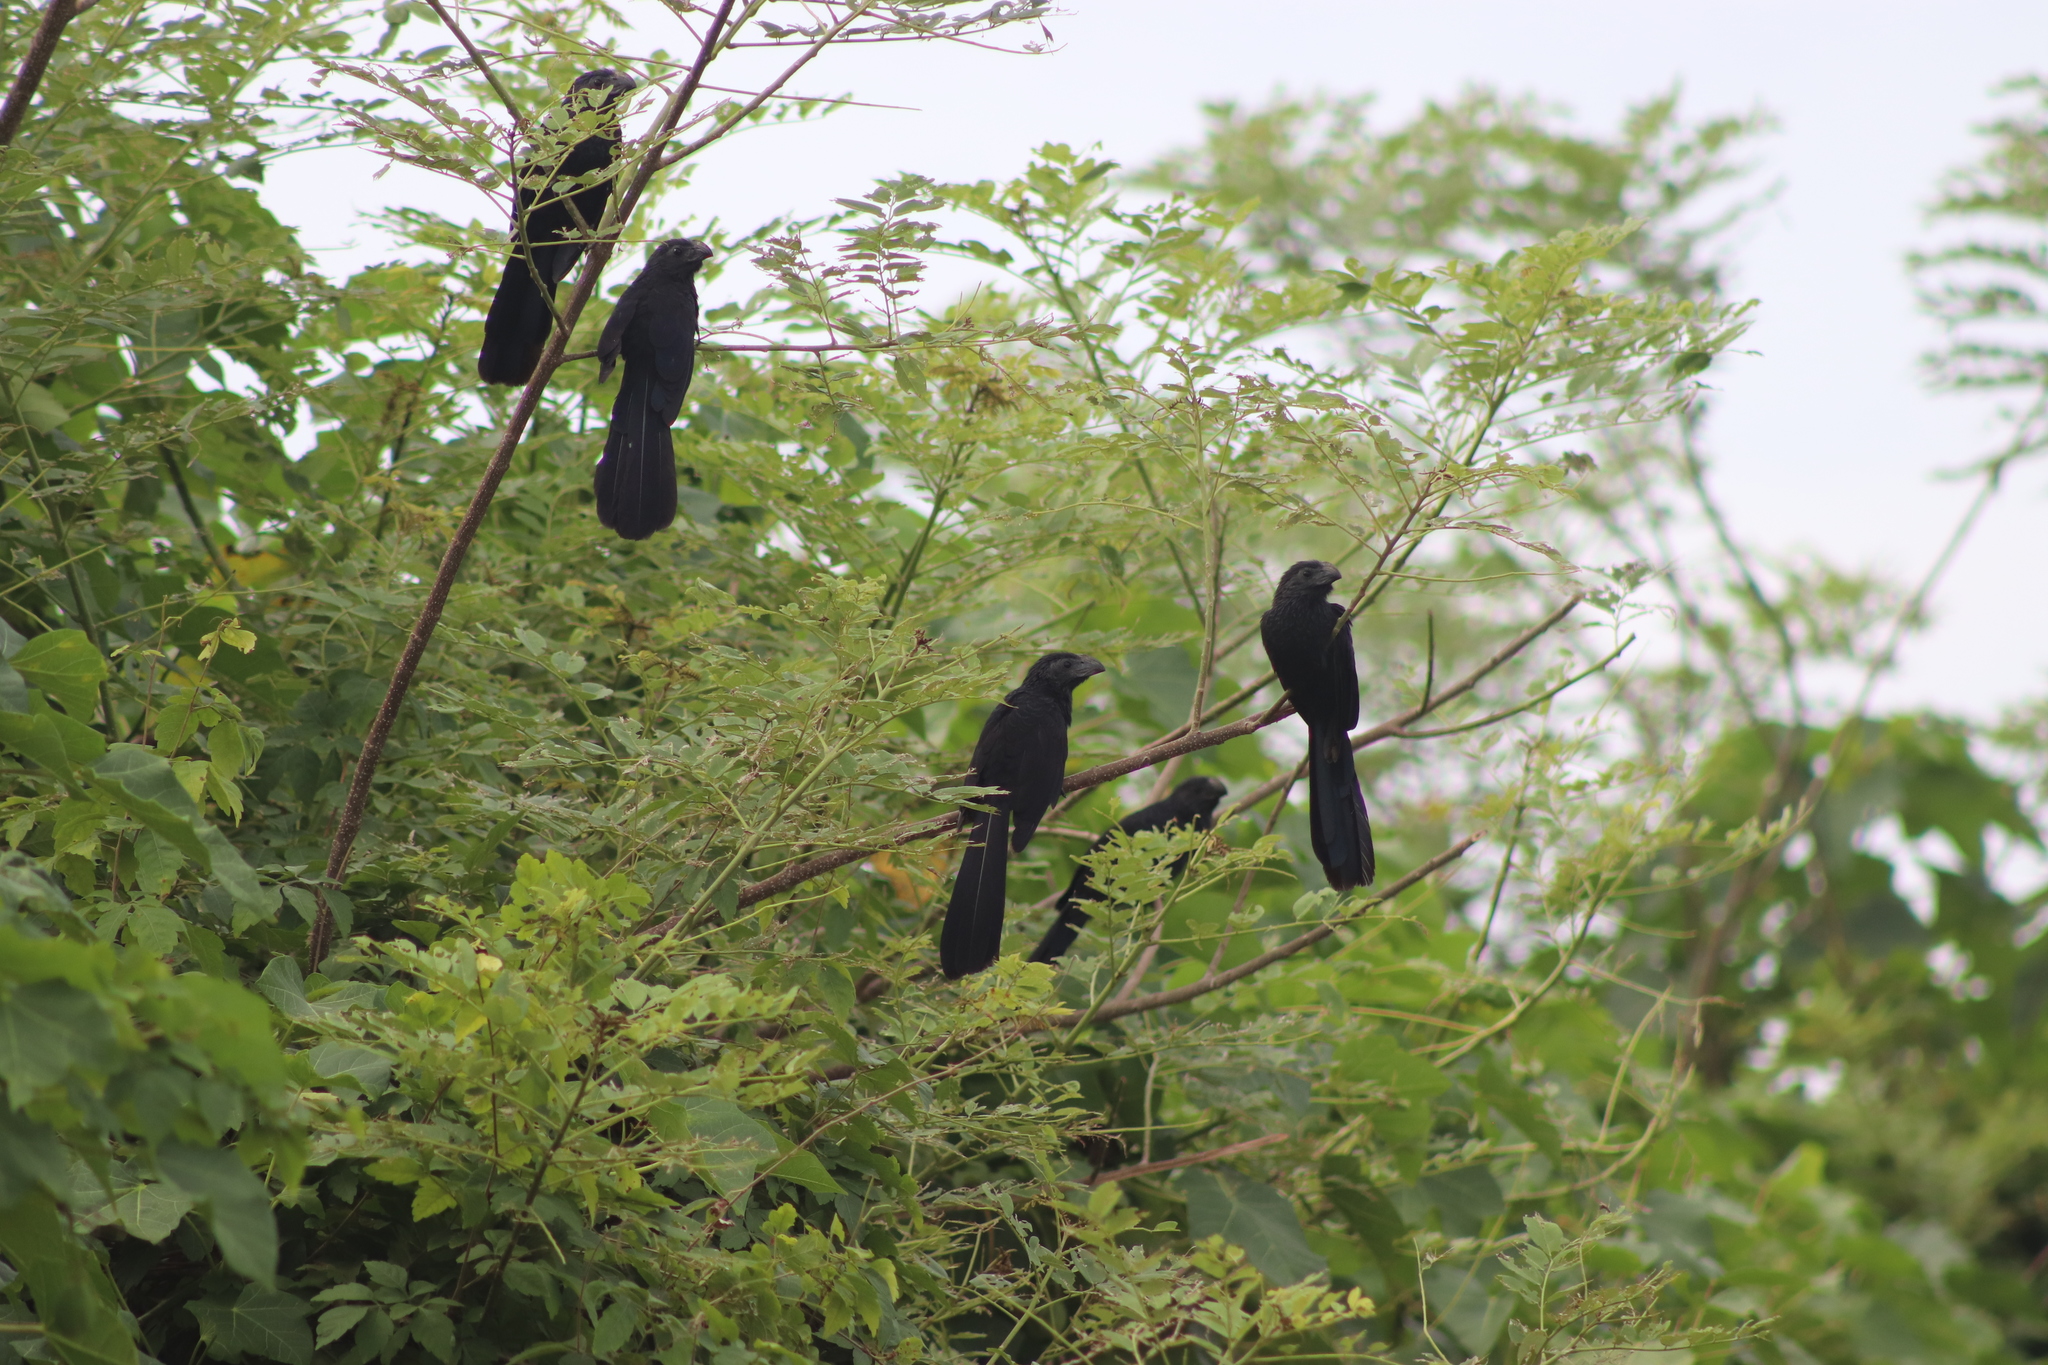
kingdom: Animalia
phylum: Chordata
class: Aves
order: Cuculiformes
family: Cuculidae
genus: Crotophaga
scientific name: Crotophaga sulcirostris
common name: Groove-billed ani
